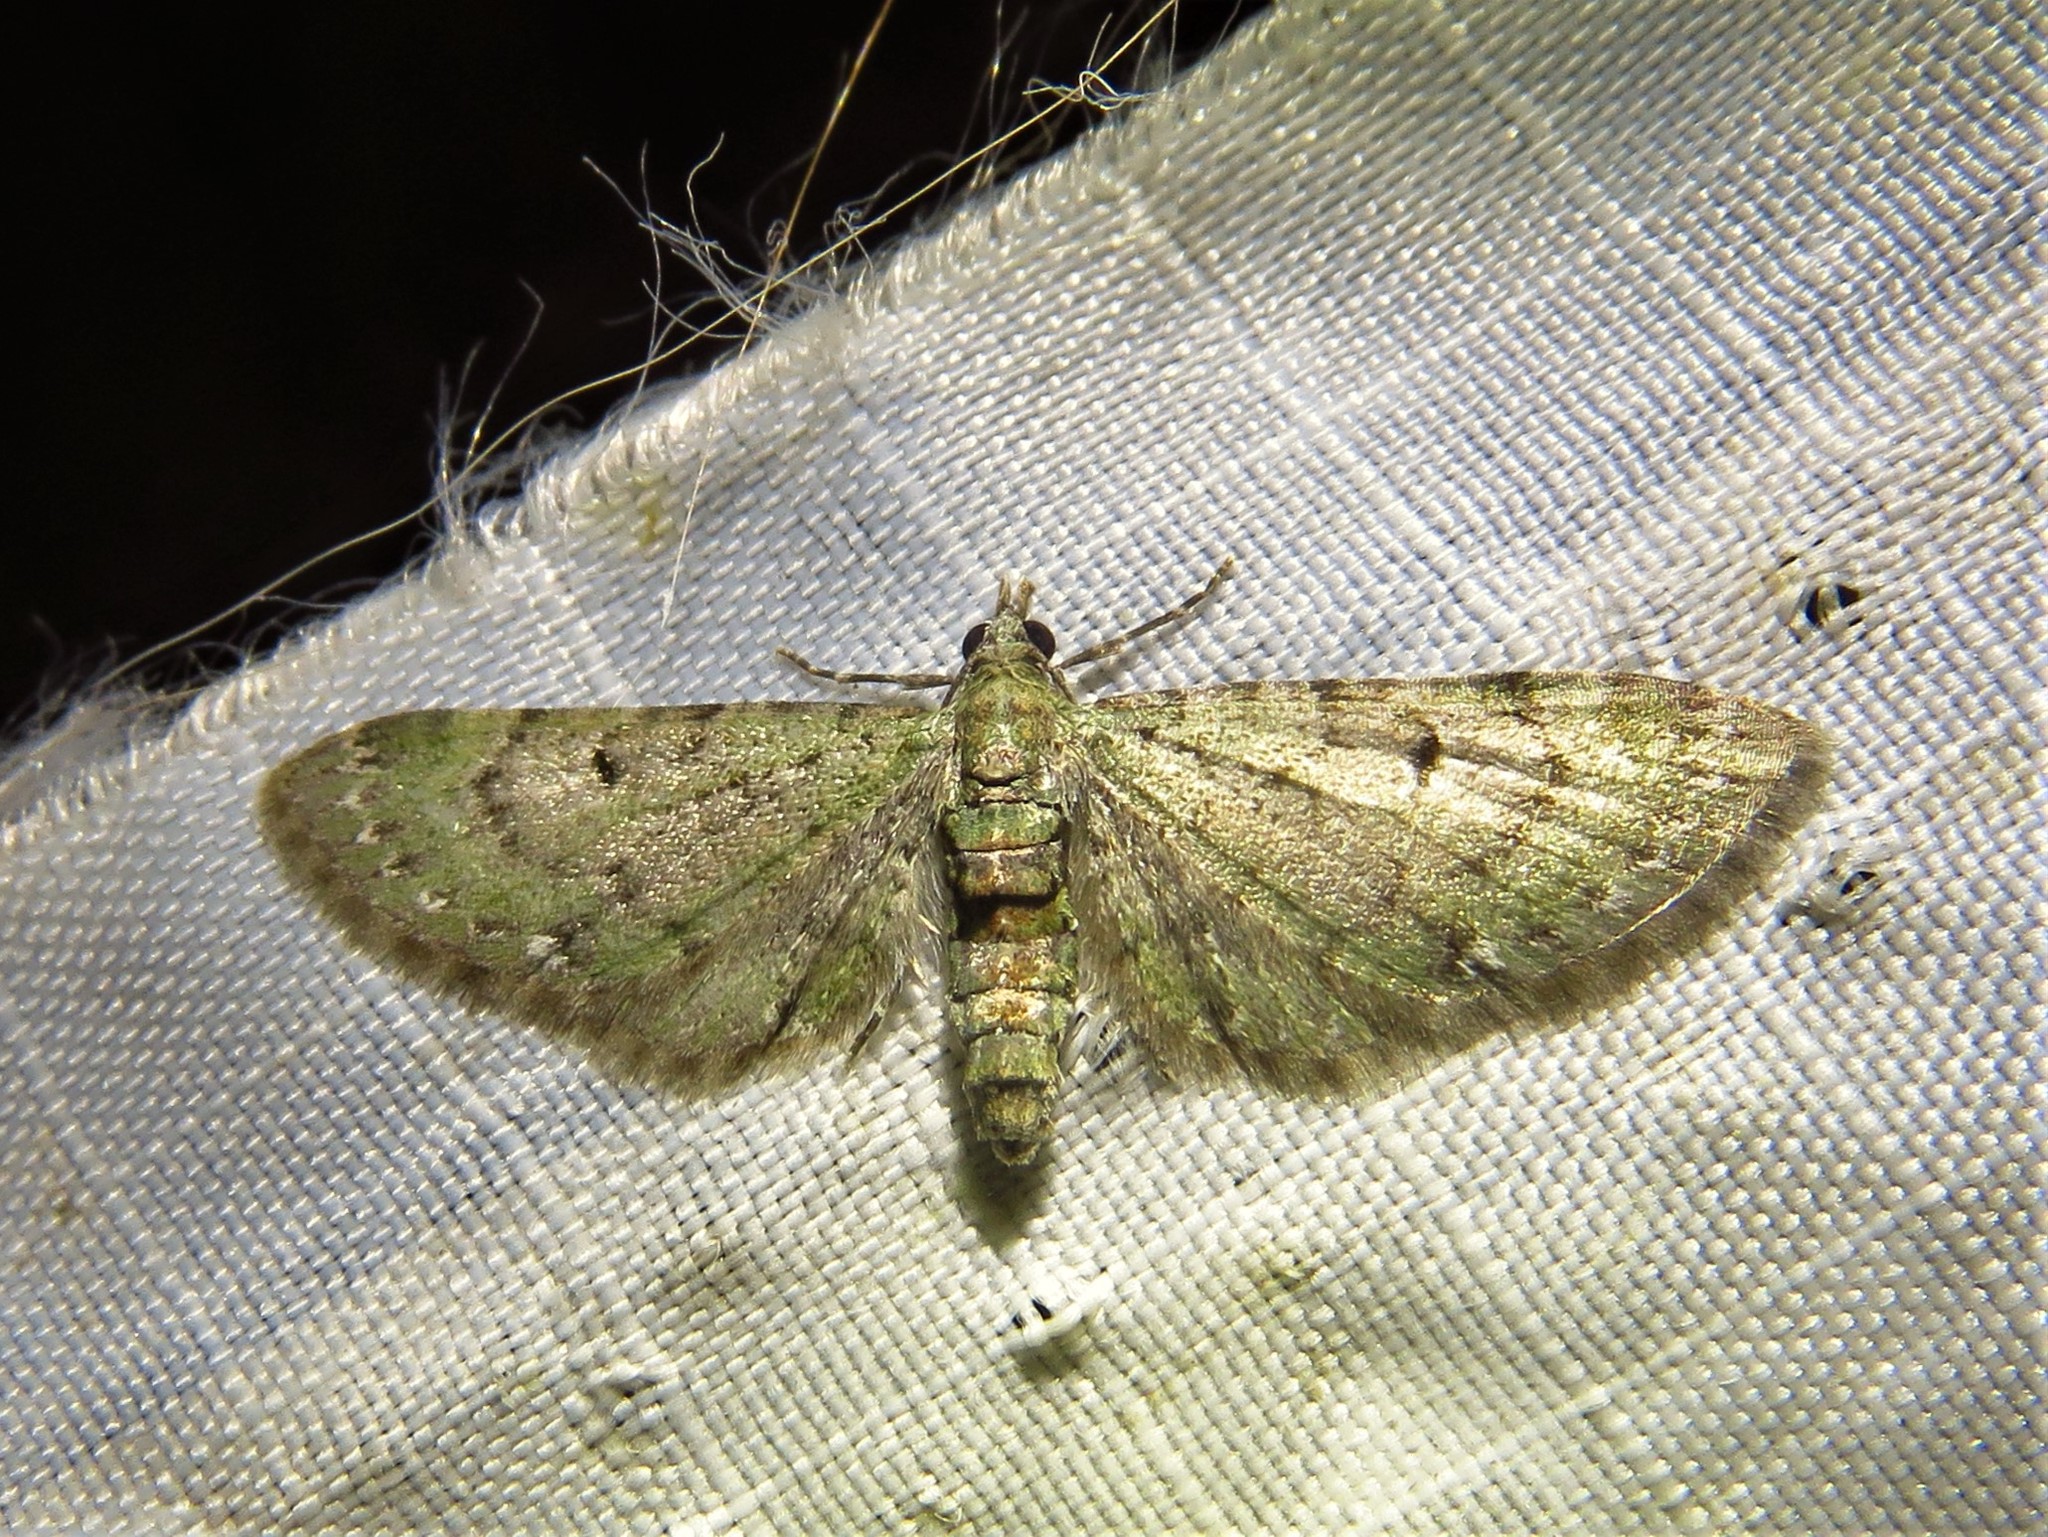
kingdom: Animalia
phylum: Arthropoda
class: Insecta
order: Lepidoptera
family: Geometridae
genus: Eupithecia
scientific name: Eupithecia miserulata
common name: Common eupithecia
